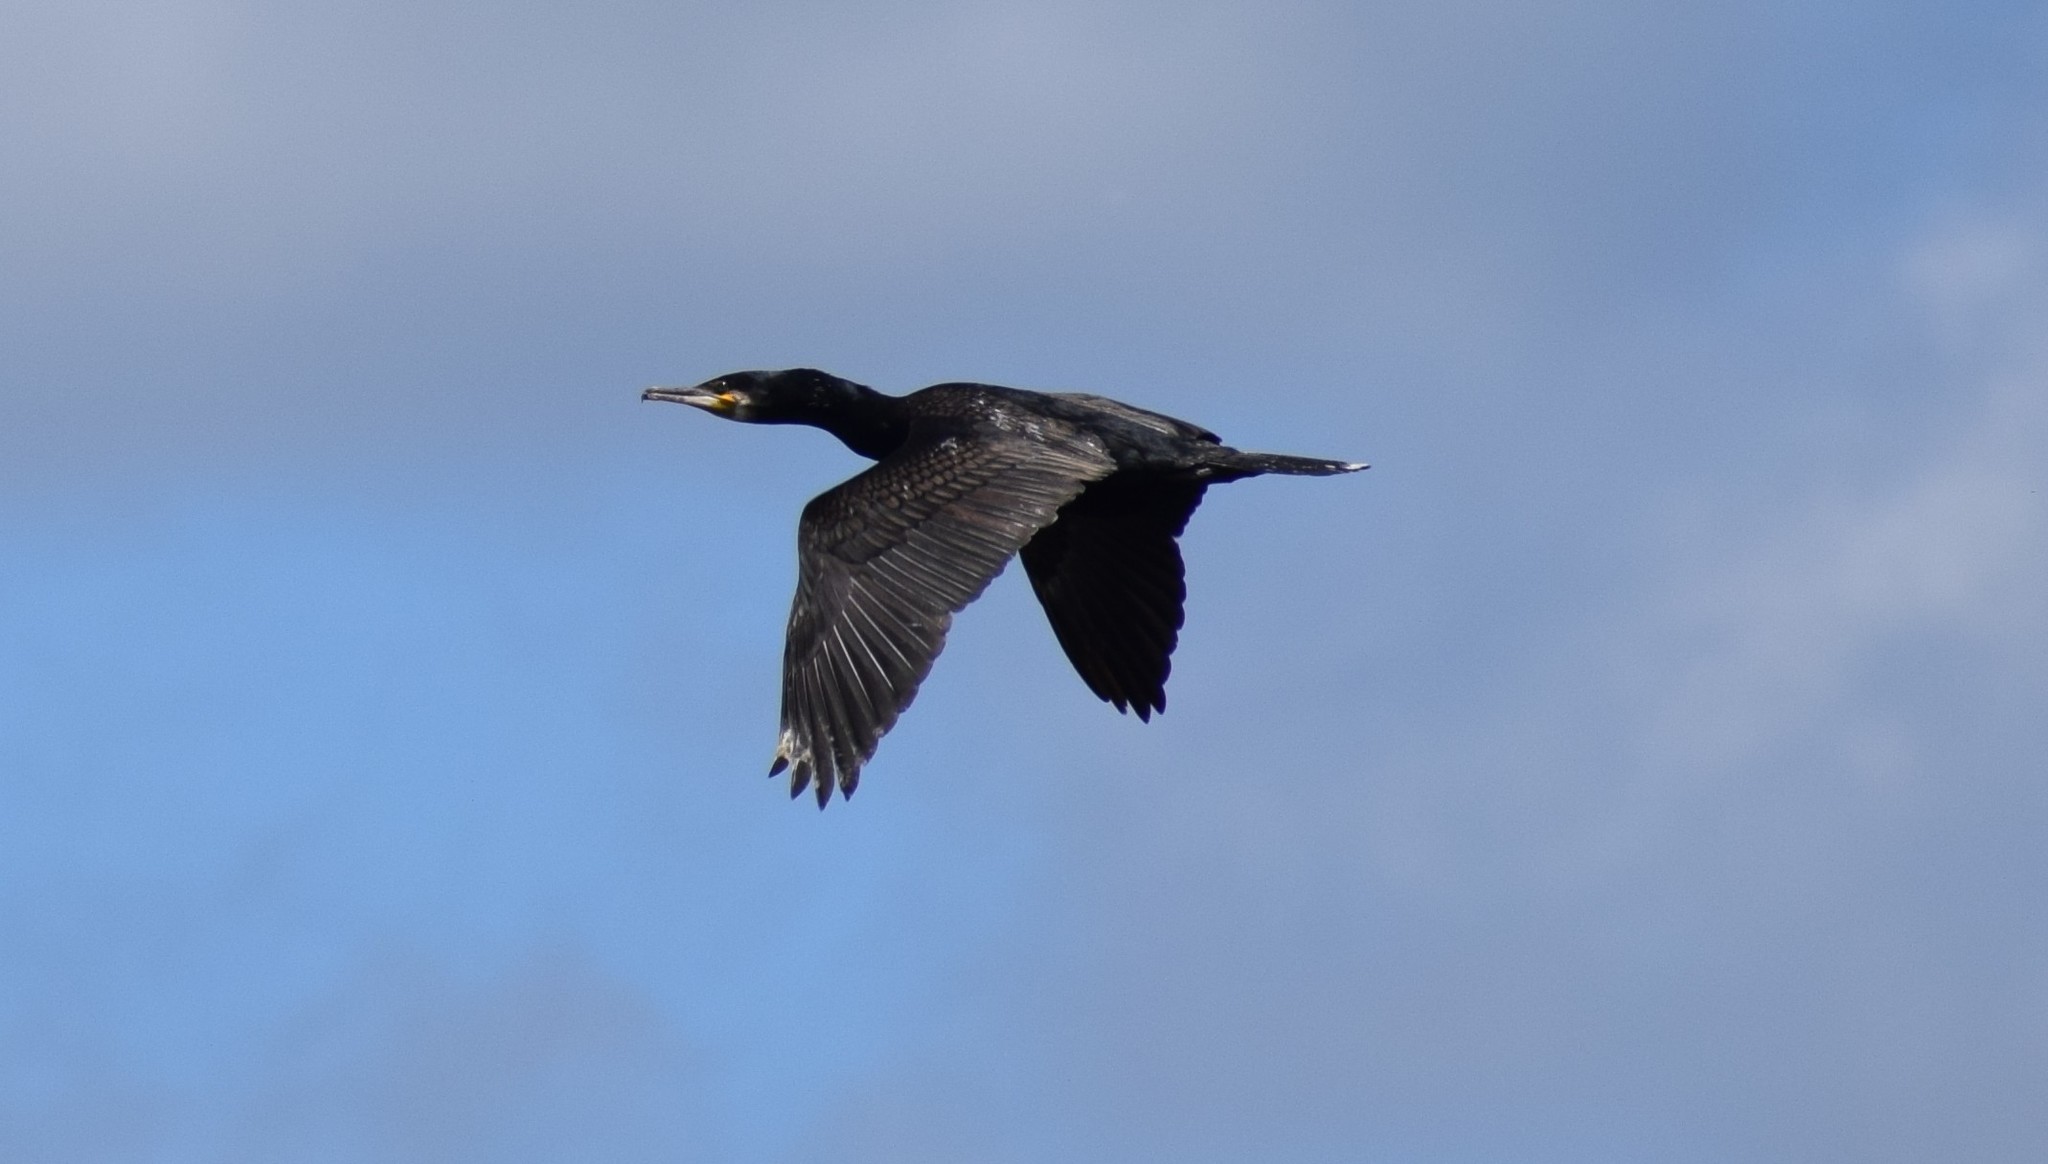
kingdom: Animalia
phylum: Chordata
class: Aves
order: Suliformes
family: Phalacrocoracidae
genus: Phalacrocorax
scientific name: Phalacrocorax carbo
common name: Great cormorant
